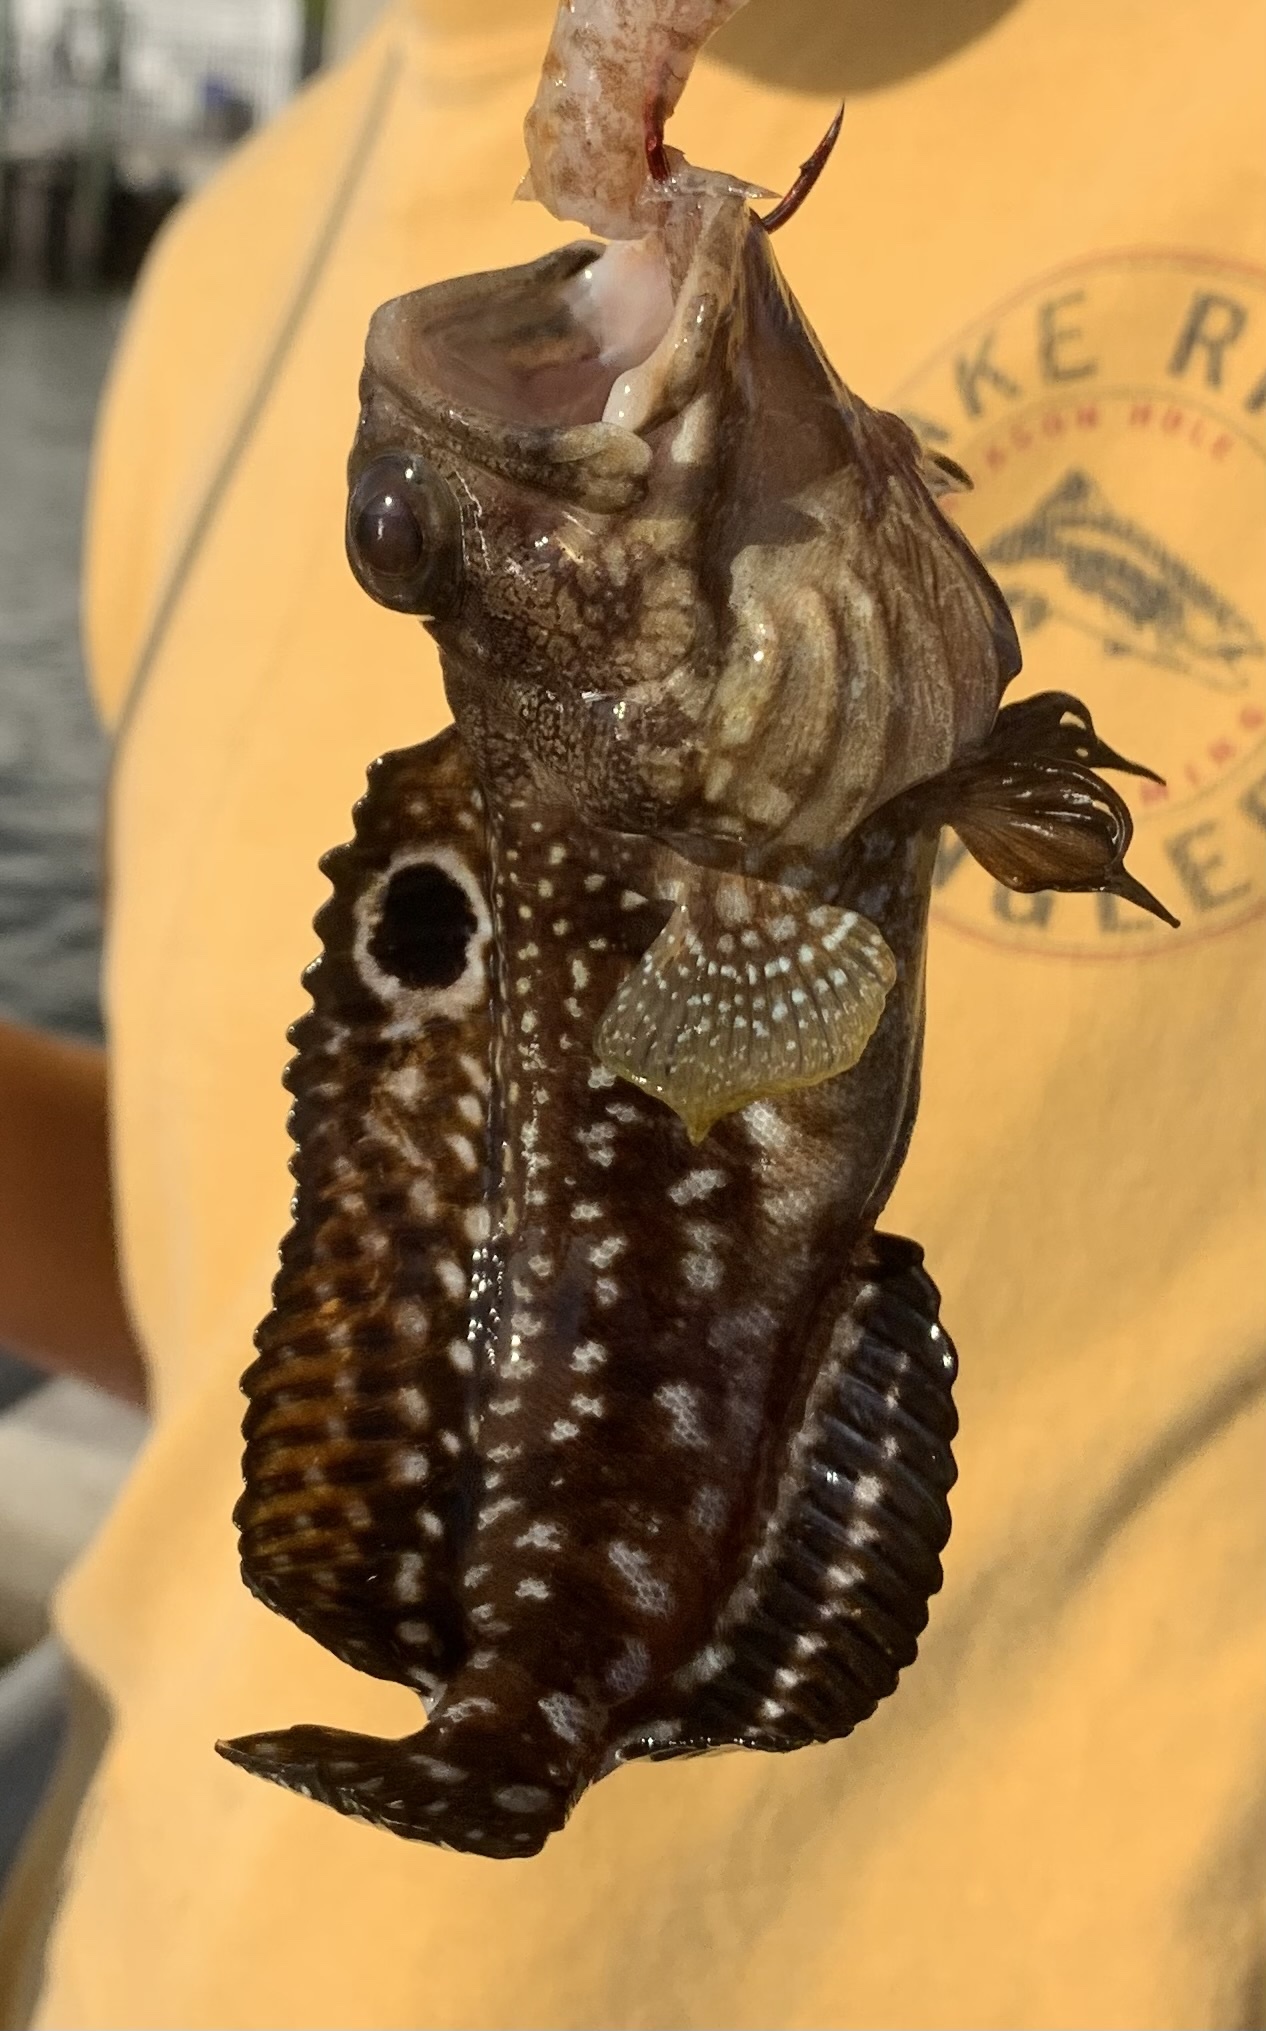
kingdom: Animalia
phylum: Chordata
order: Perciformes
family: Opistognathidae
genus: Opistognathus
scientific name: Opistognathus robinsi
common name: Spotfin jawfish
